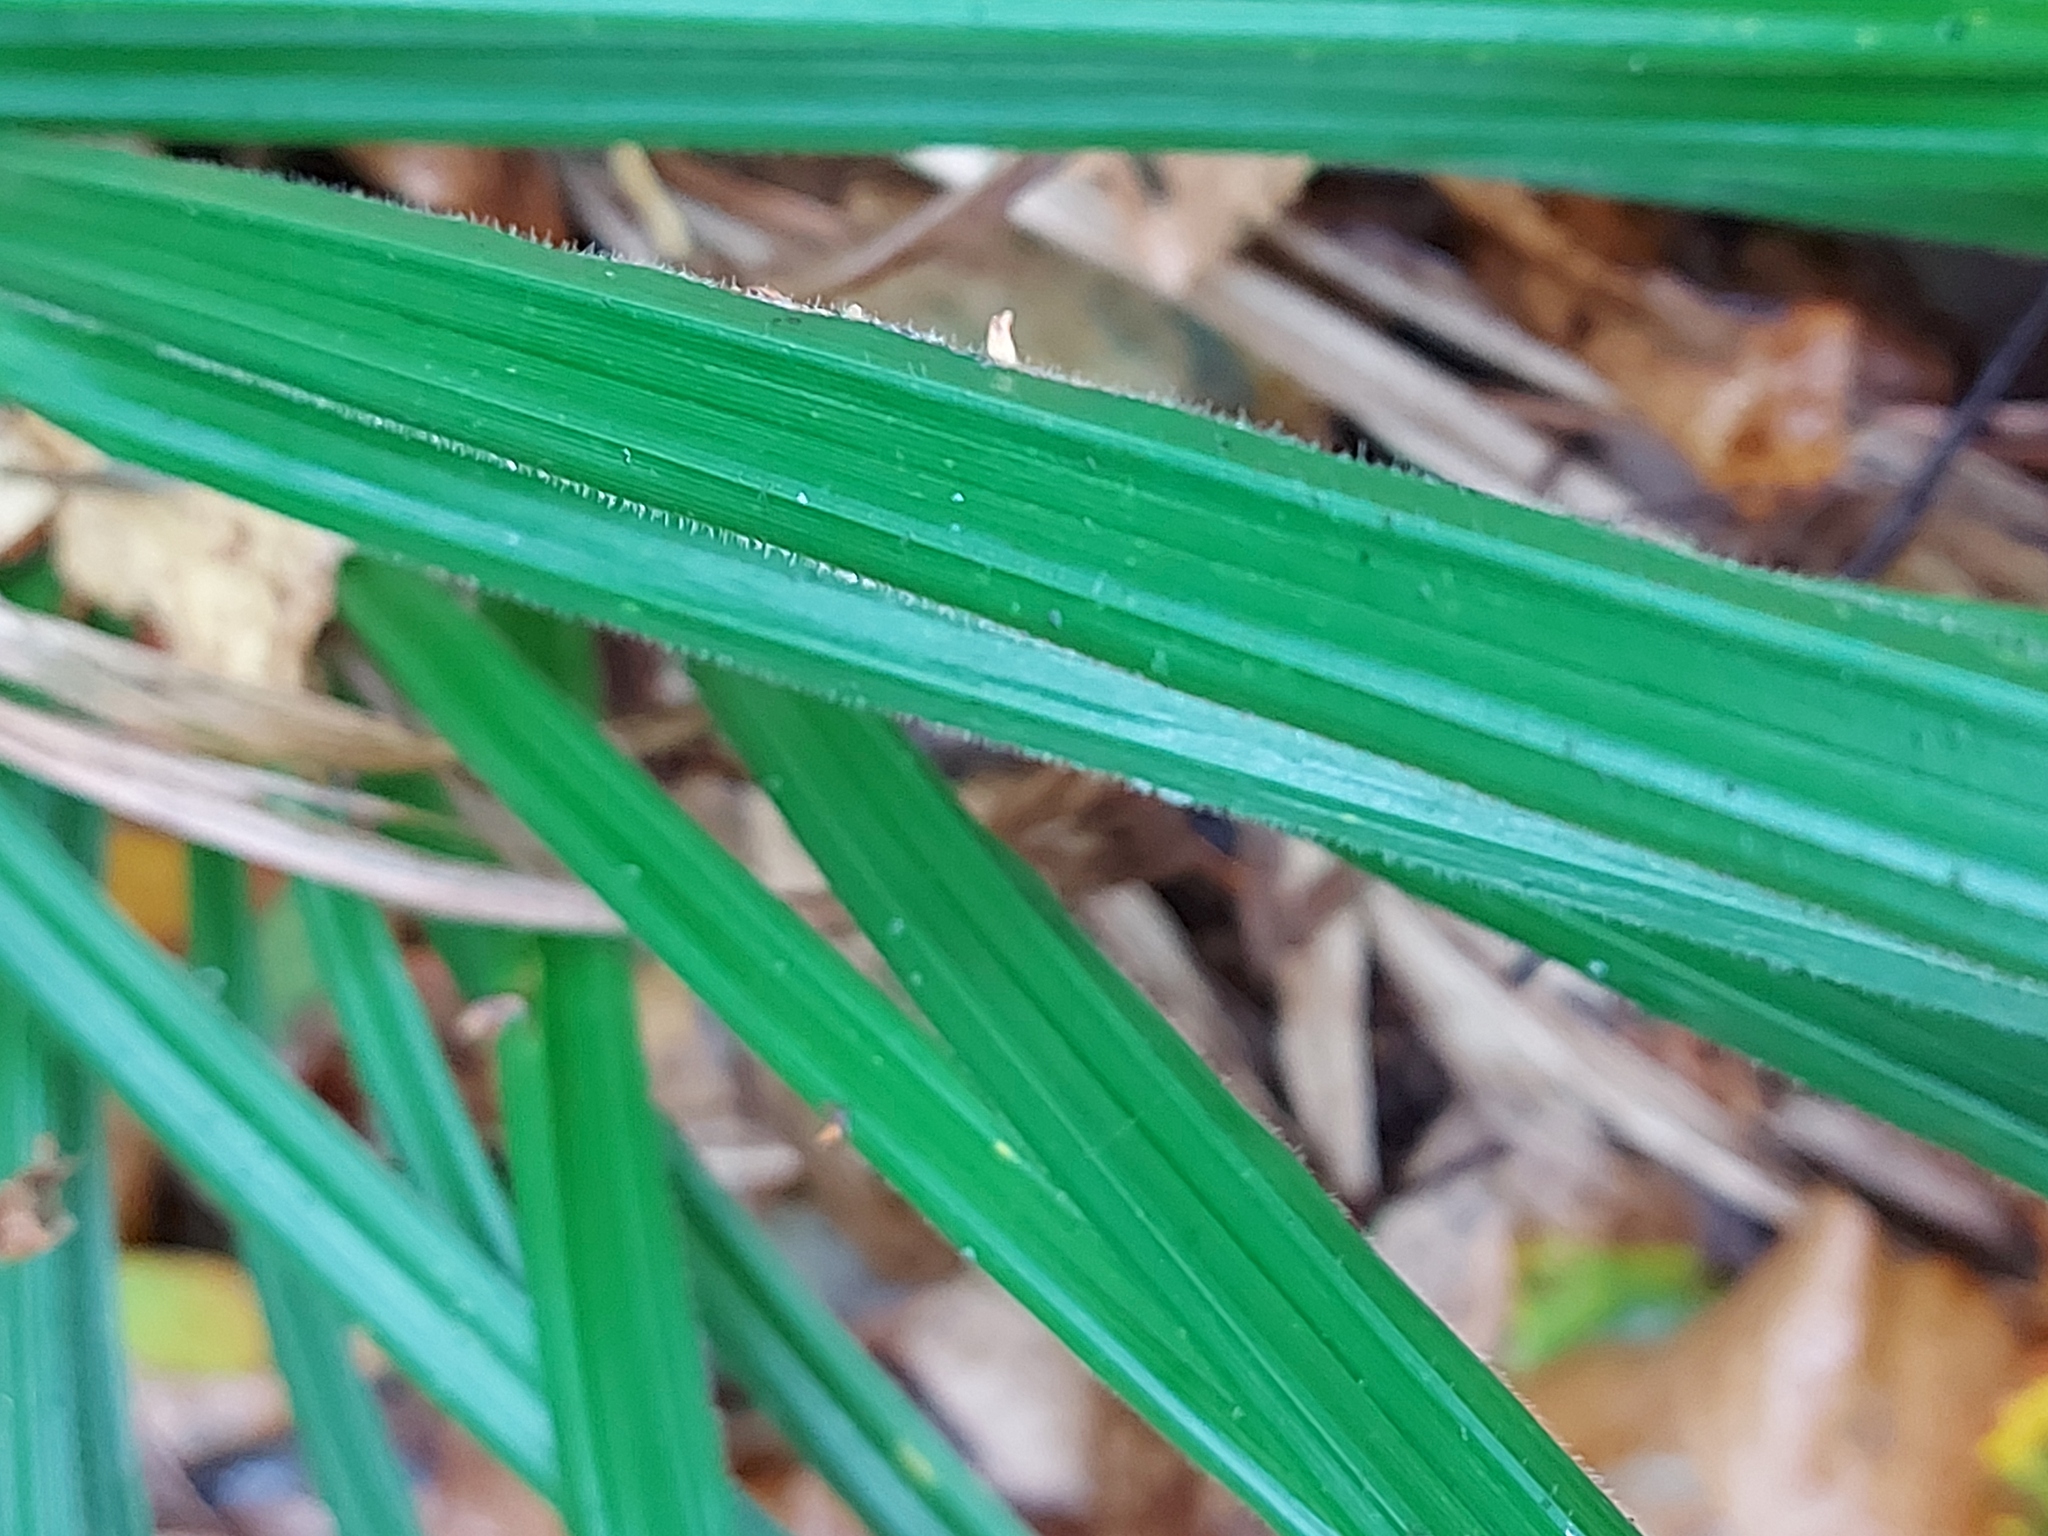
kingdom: Plantae
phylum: Tracheophyta
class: Liliopsida
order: Poales
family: Cyperaceae
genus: Carex
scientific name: Carex pilosa
